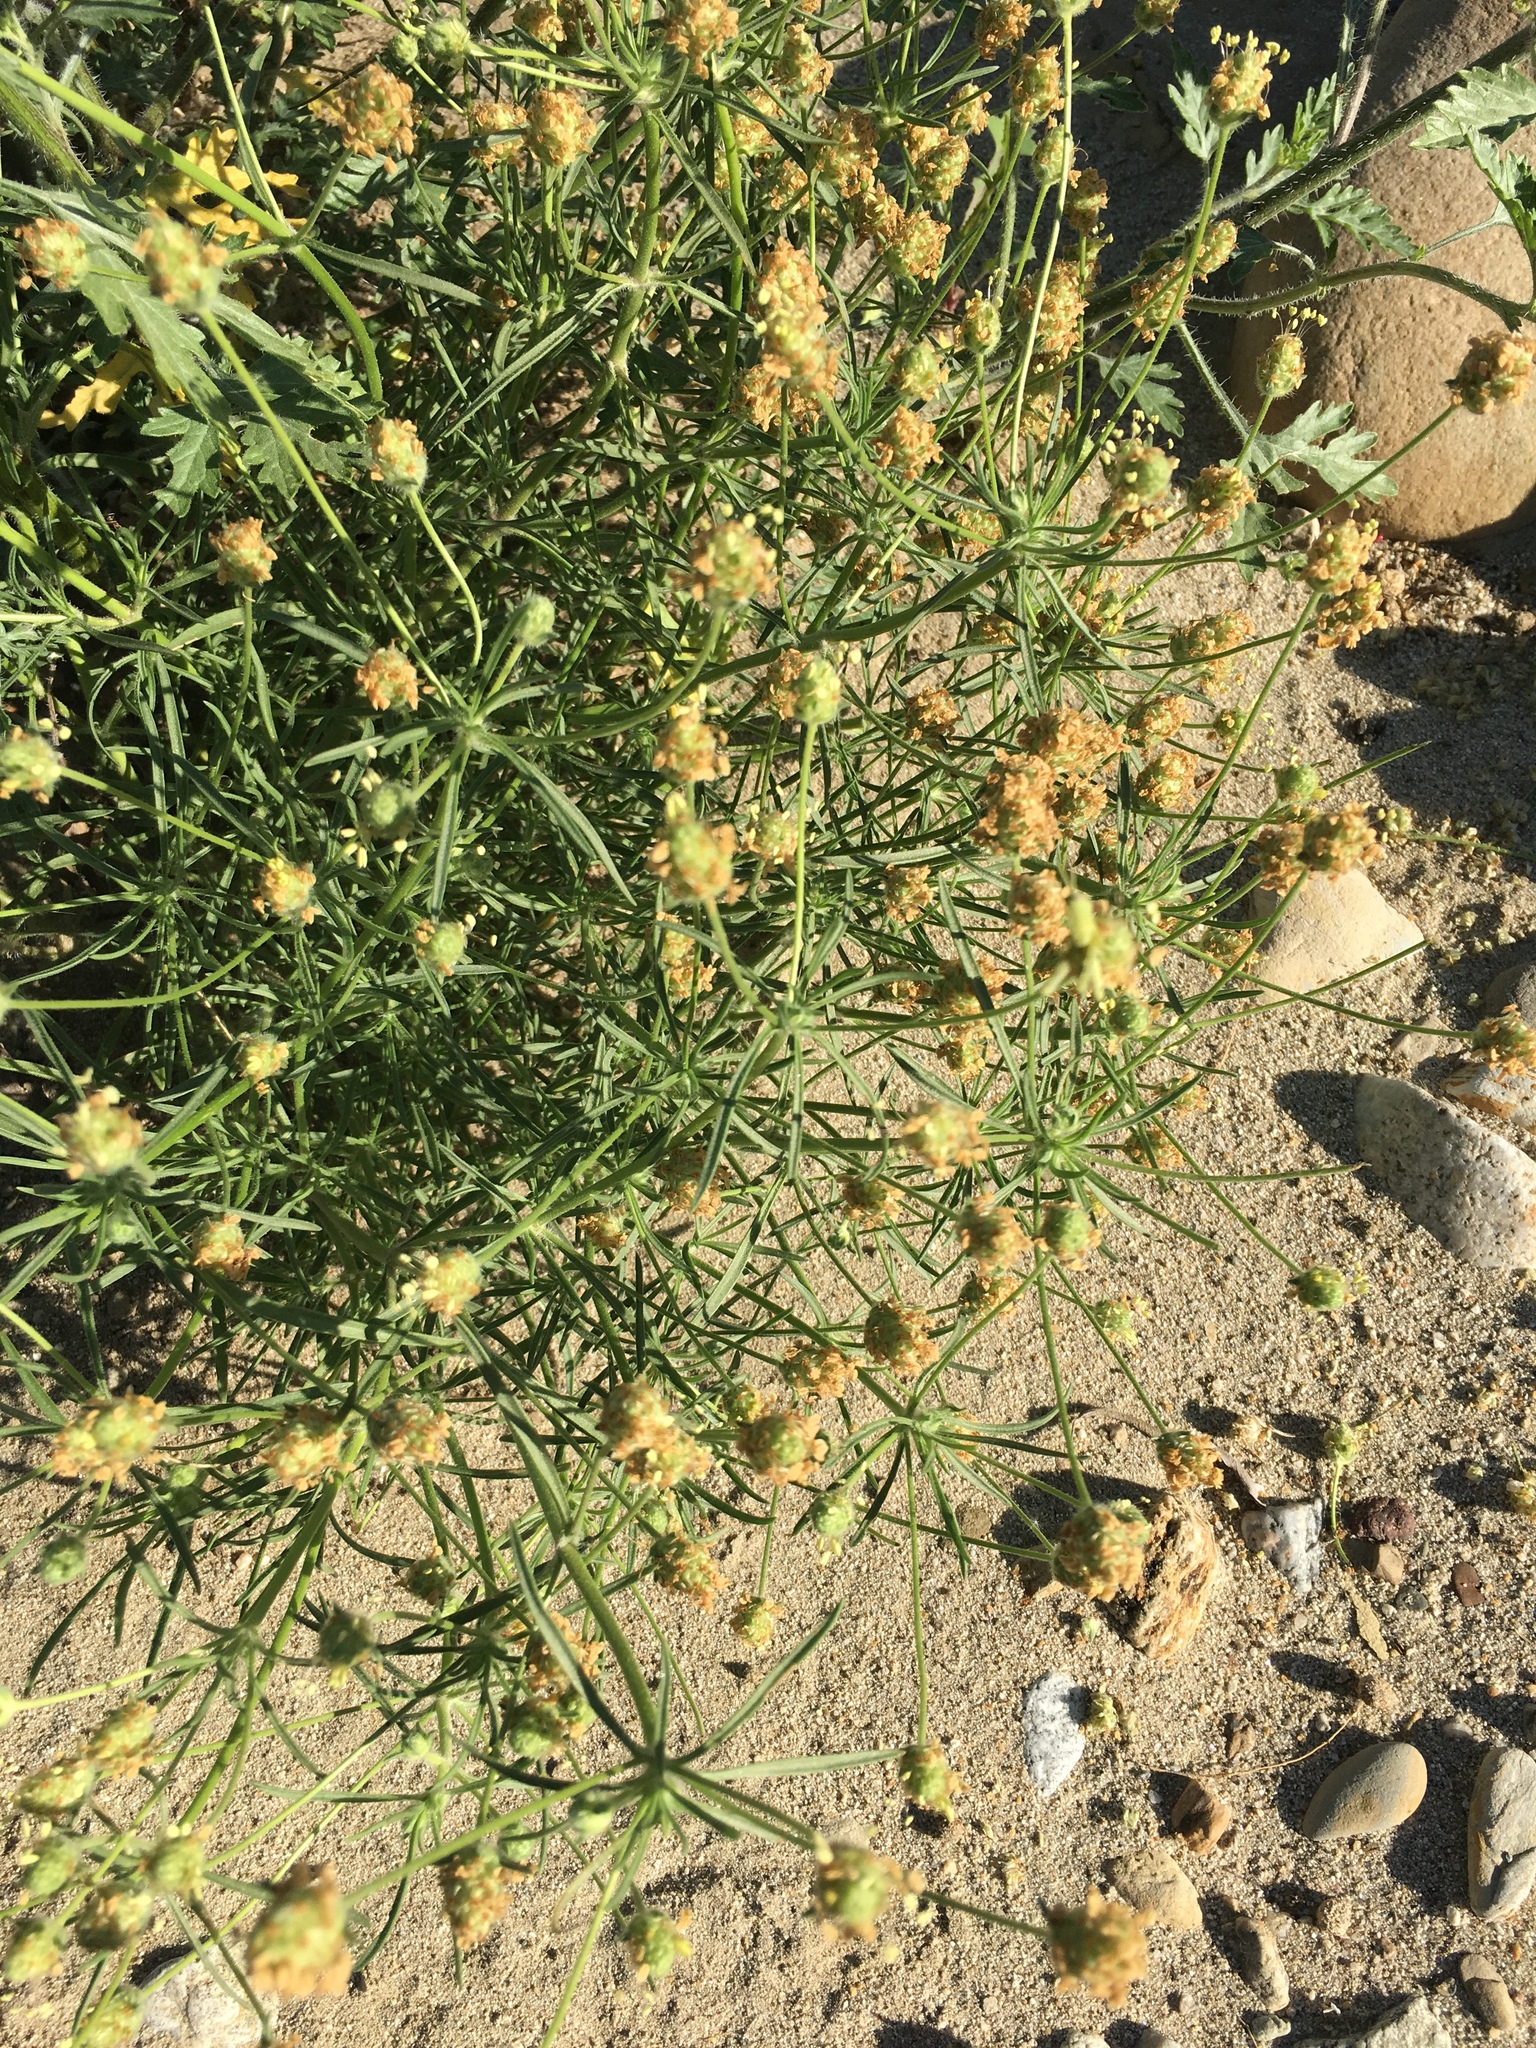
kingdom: Plantae
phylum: Tracheophyta
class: Magnoliopsida
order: Lamiales
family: Plantaginaceae
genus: Plantago
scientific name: Plantago arenaria
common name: Branched plantain
